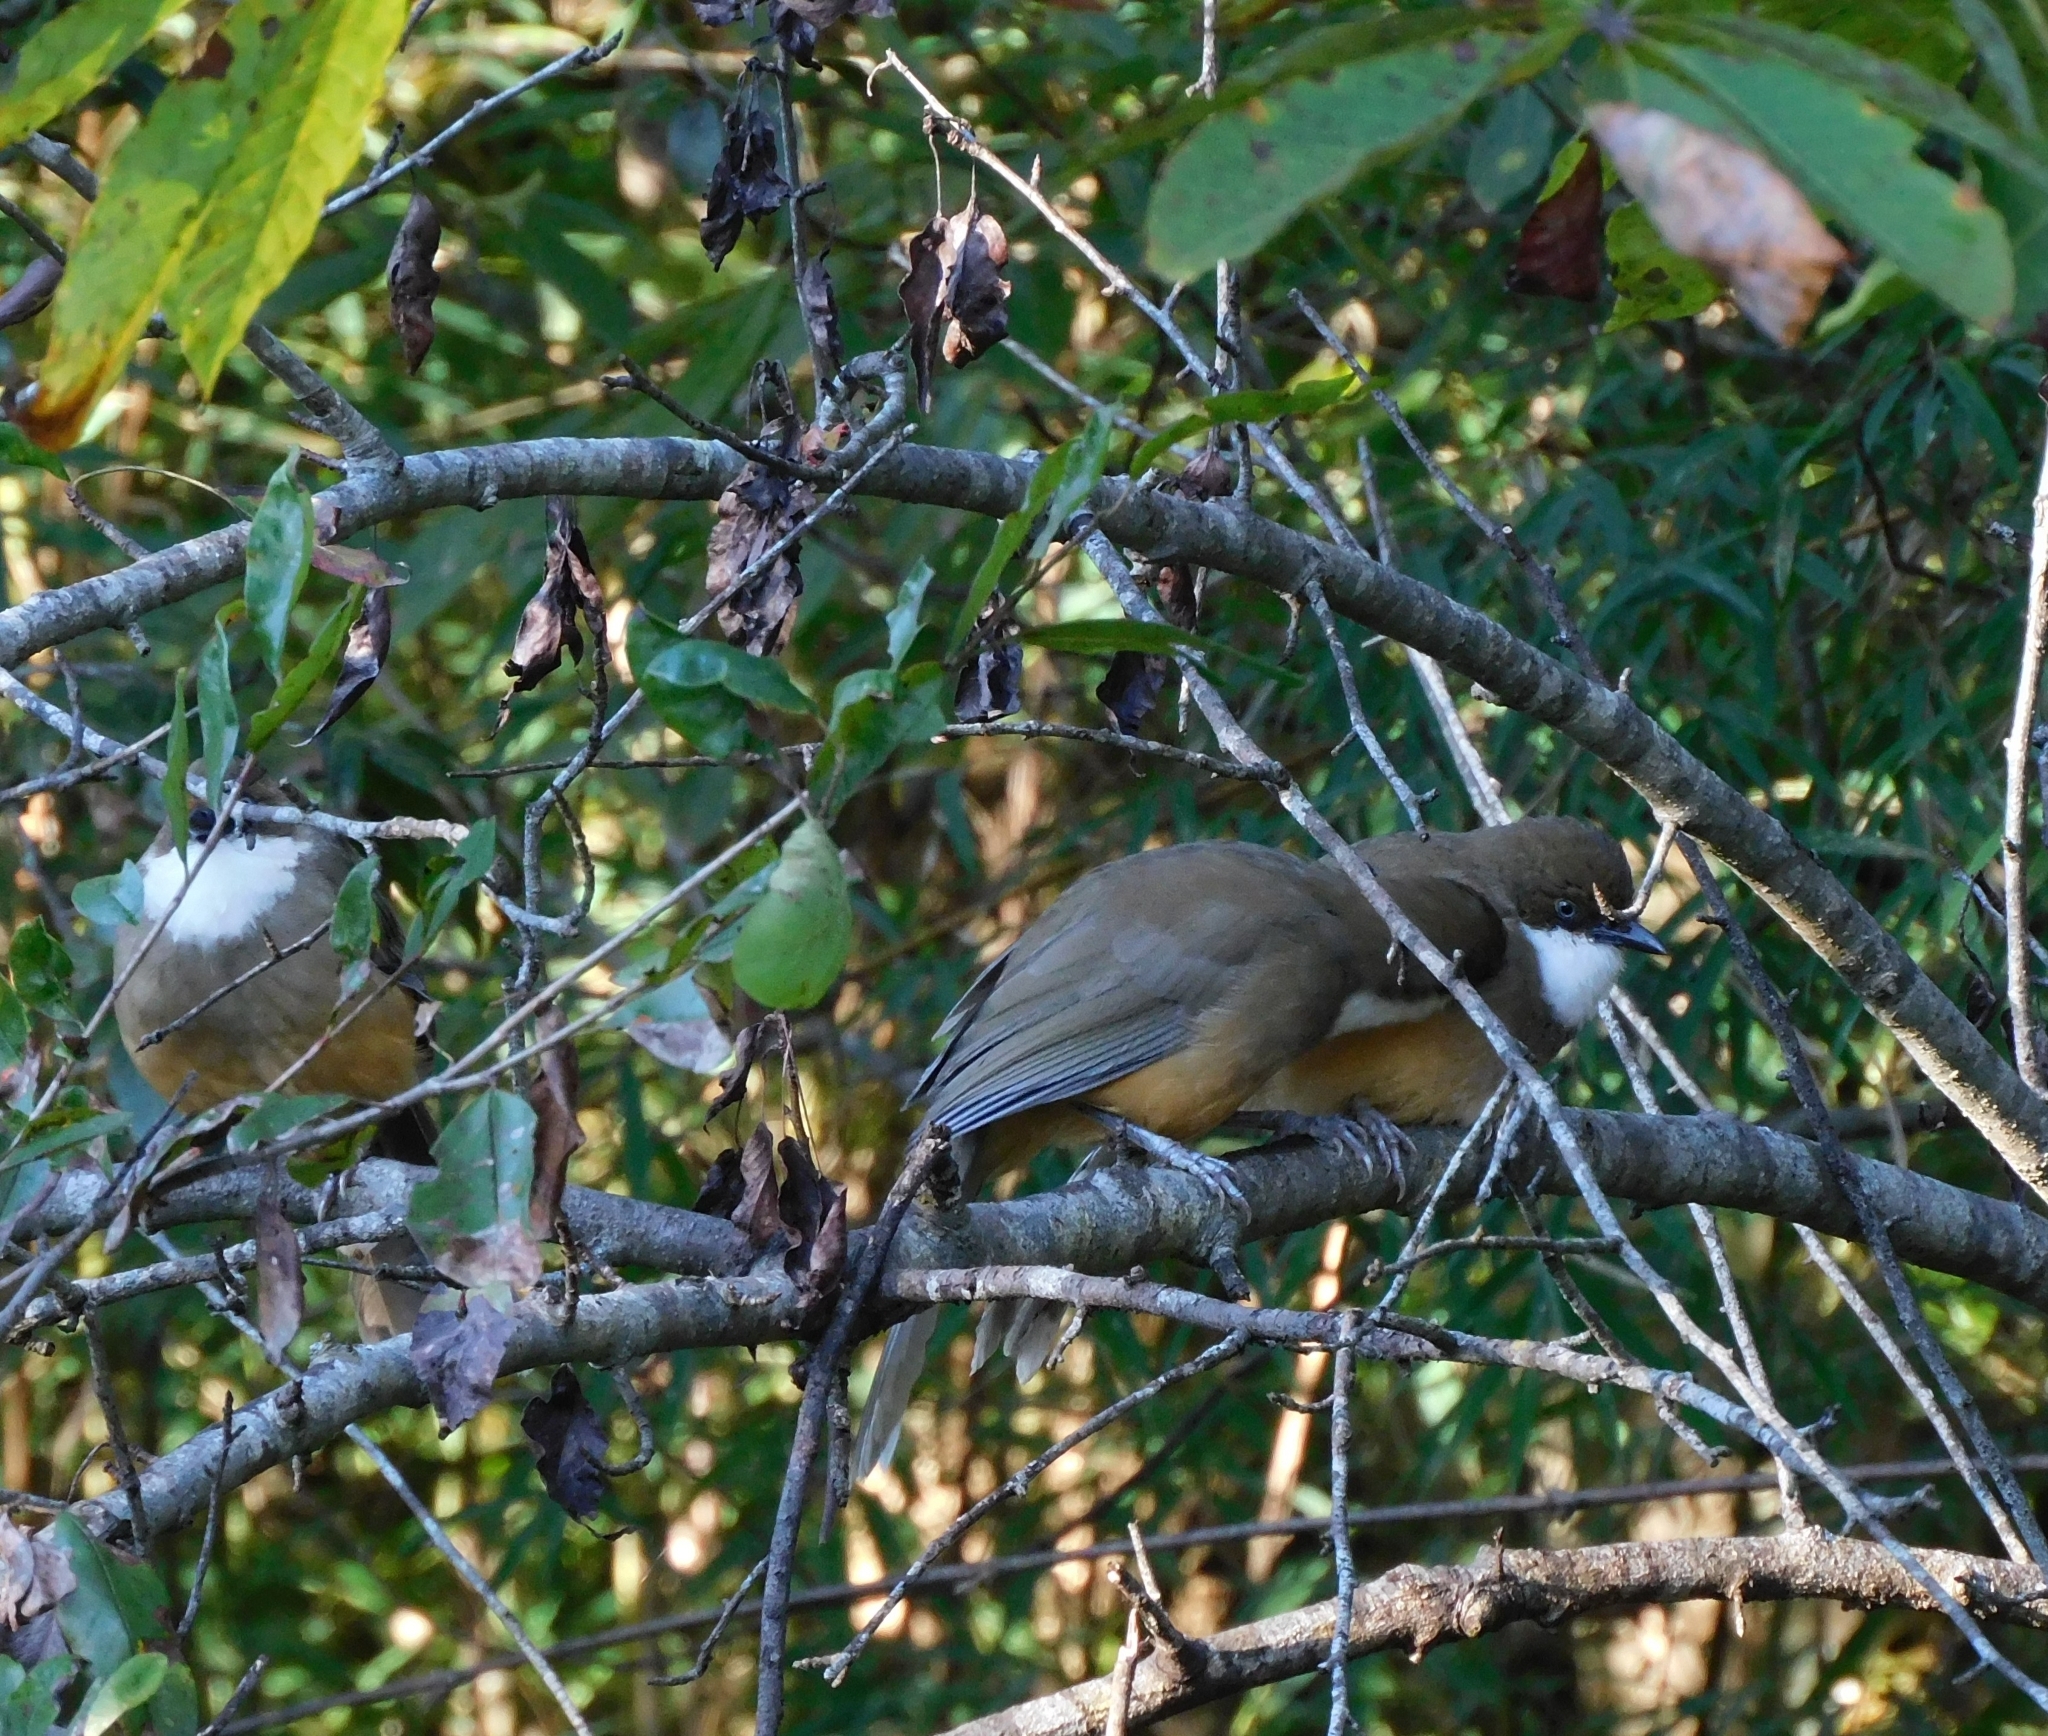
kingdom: Animalia
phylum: Chordata
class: Aves
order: Passeriformes
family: Leiothrichidae
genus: Garrulax
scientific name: Garrulax albogularis
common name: White-throated laughingthrush
